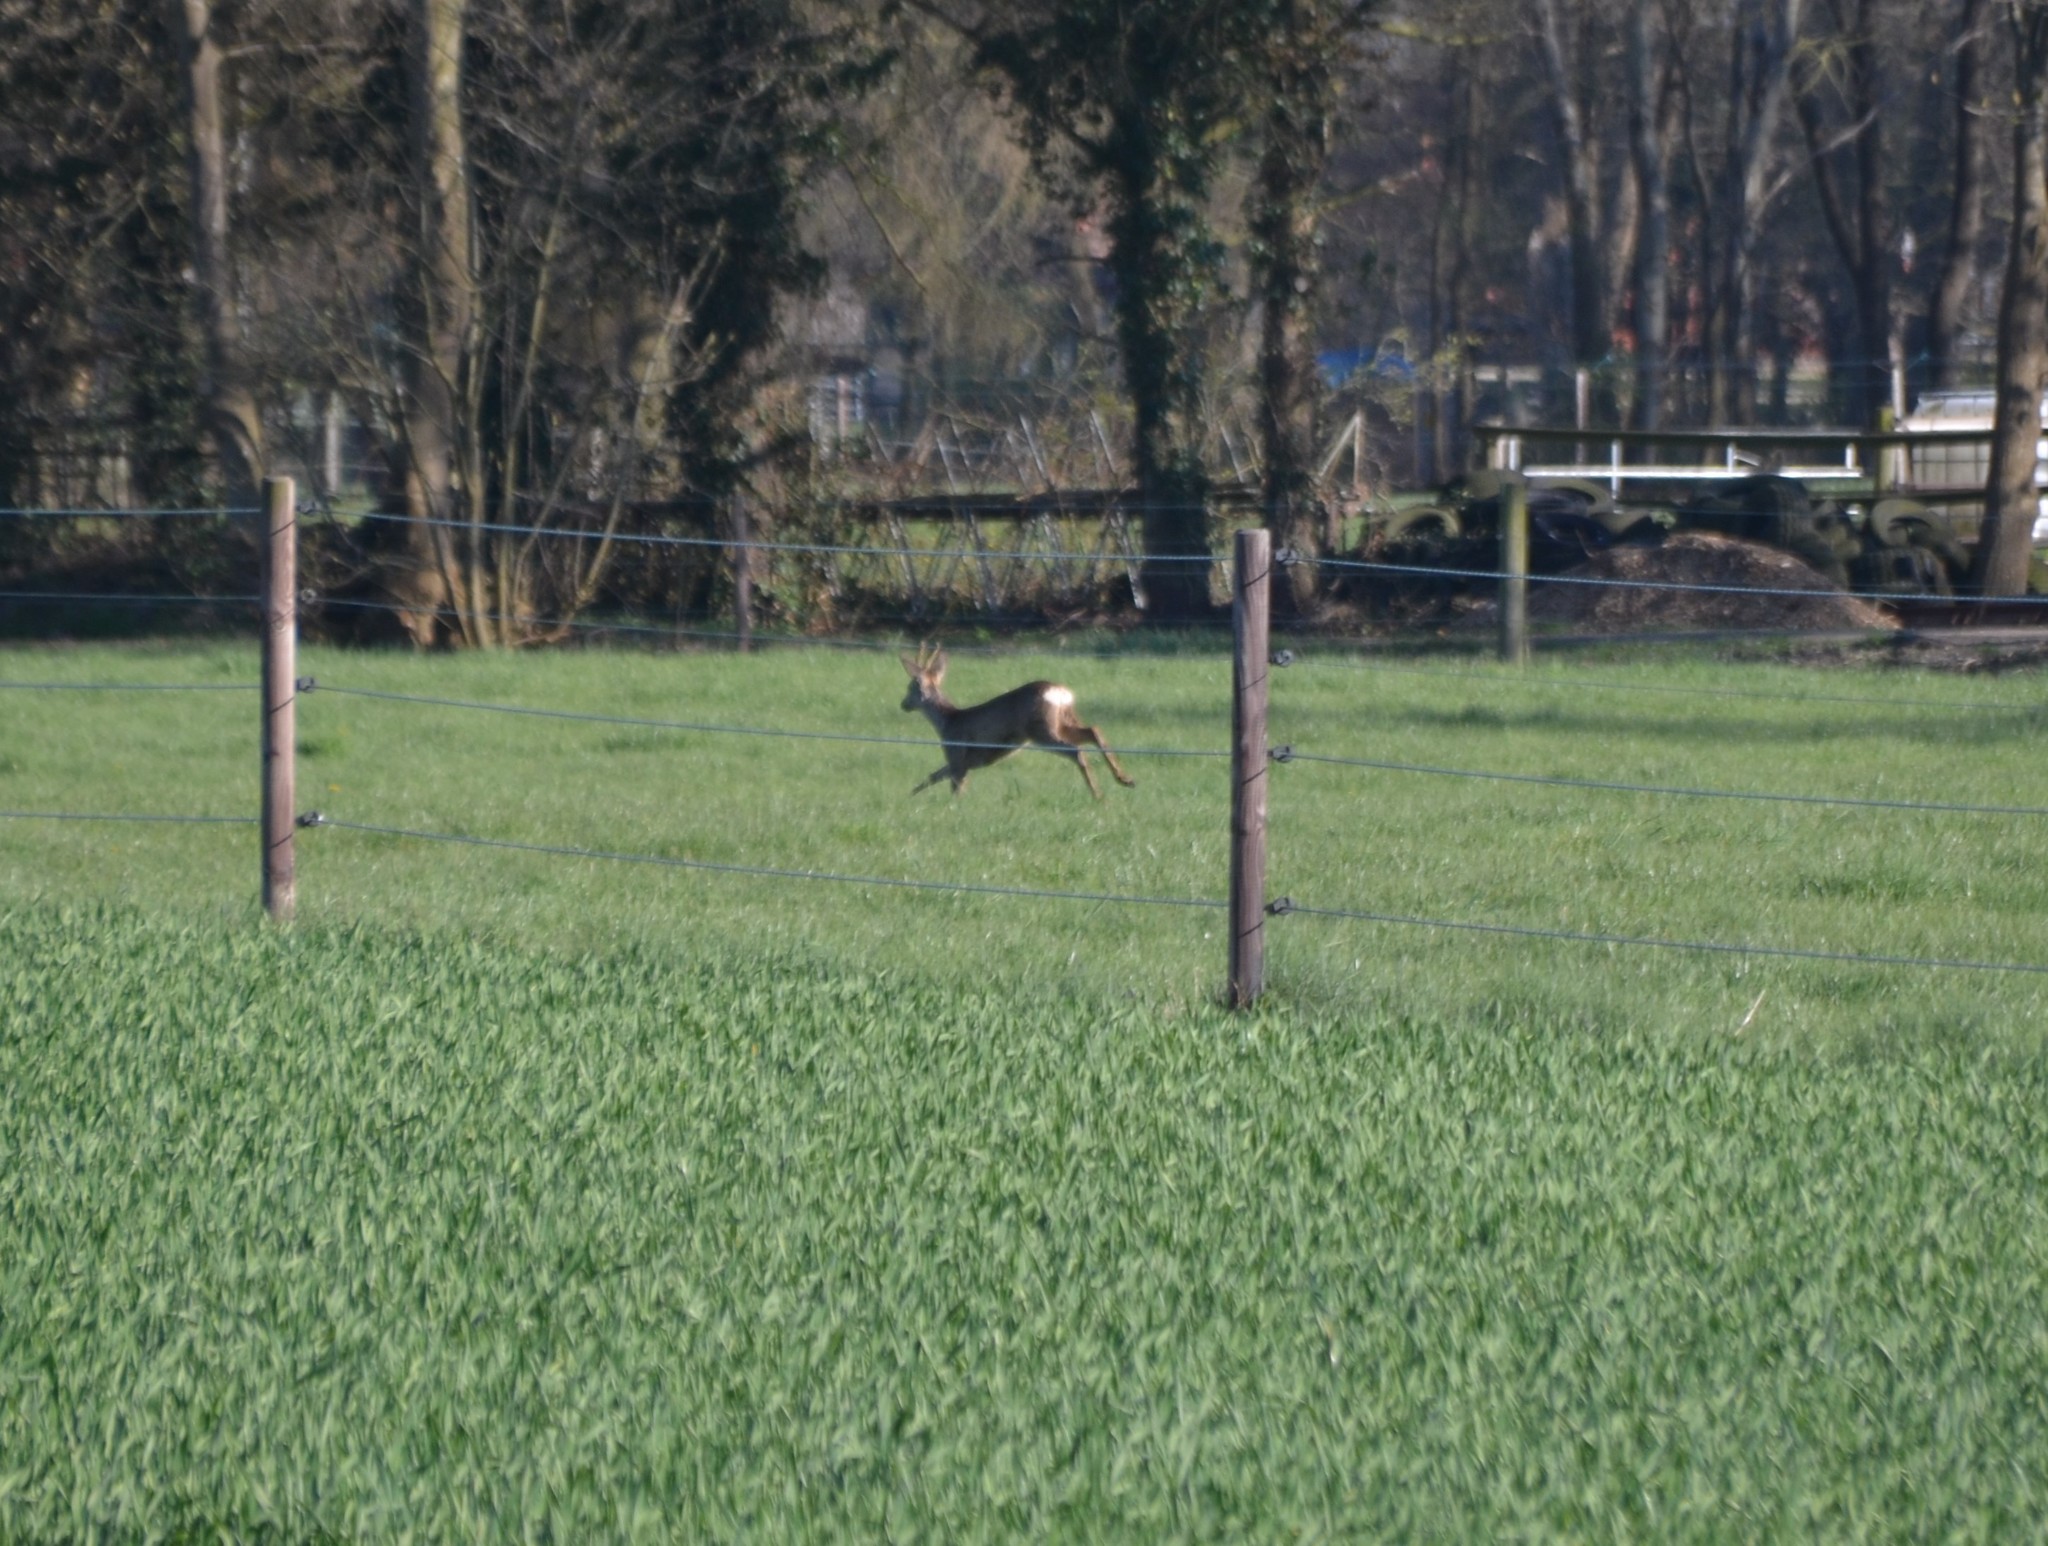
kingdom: Animalia
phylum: Chordata
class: Mammalia
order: Artiodactyla
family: Cervidae
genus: Capreolus
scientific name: Capreolus capreolus
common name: Western roe deer
